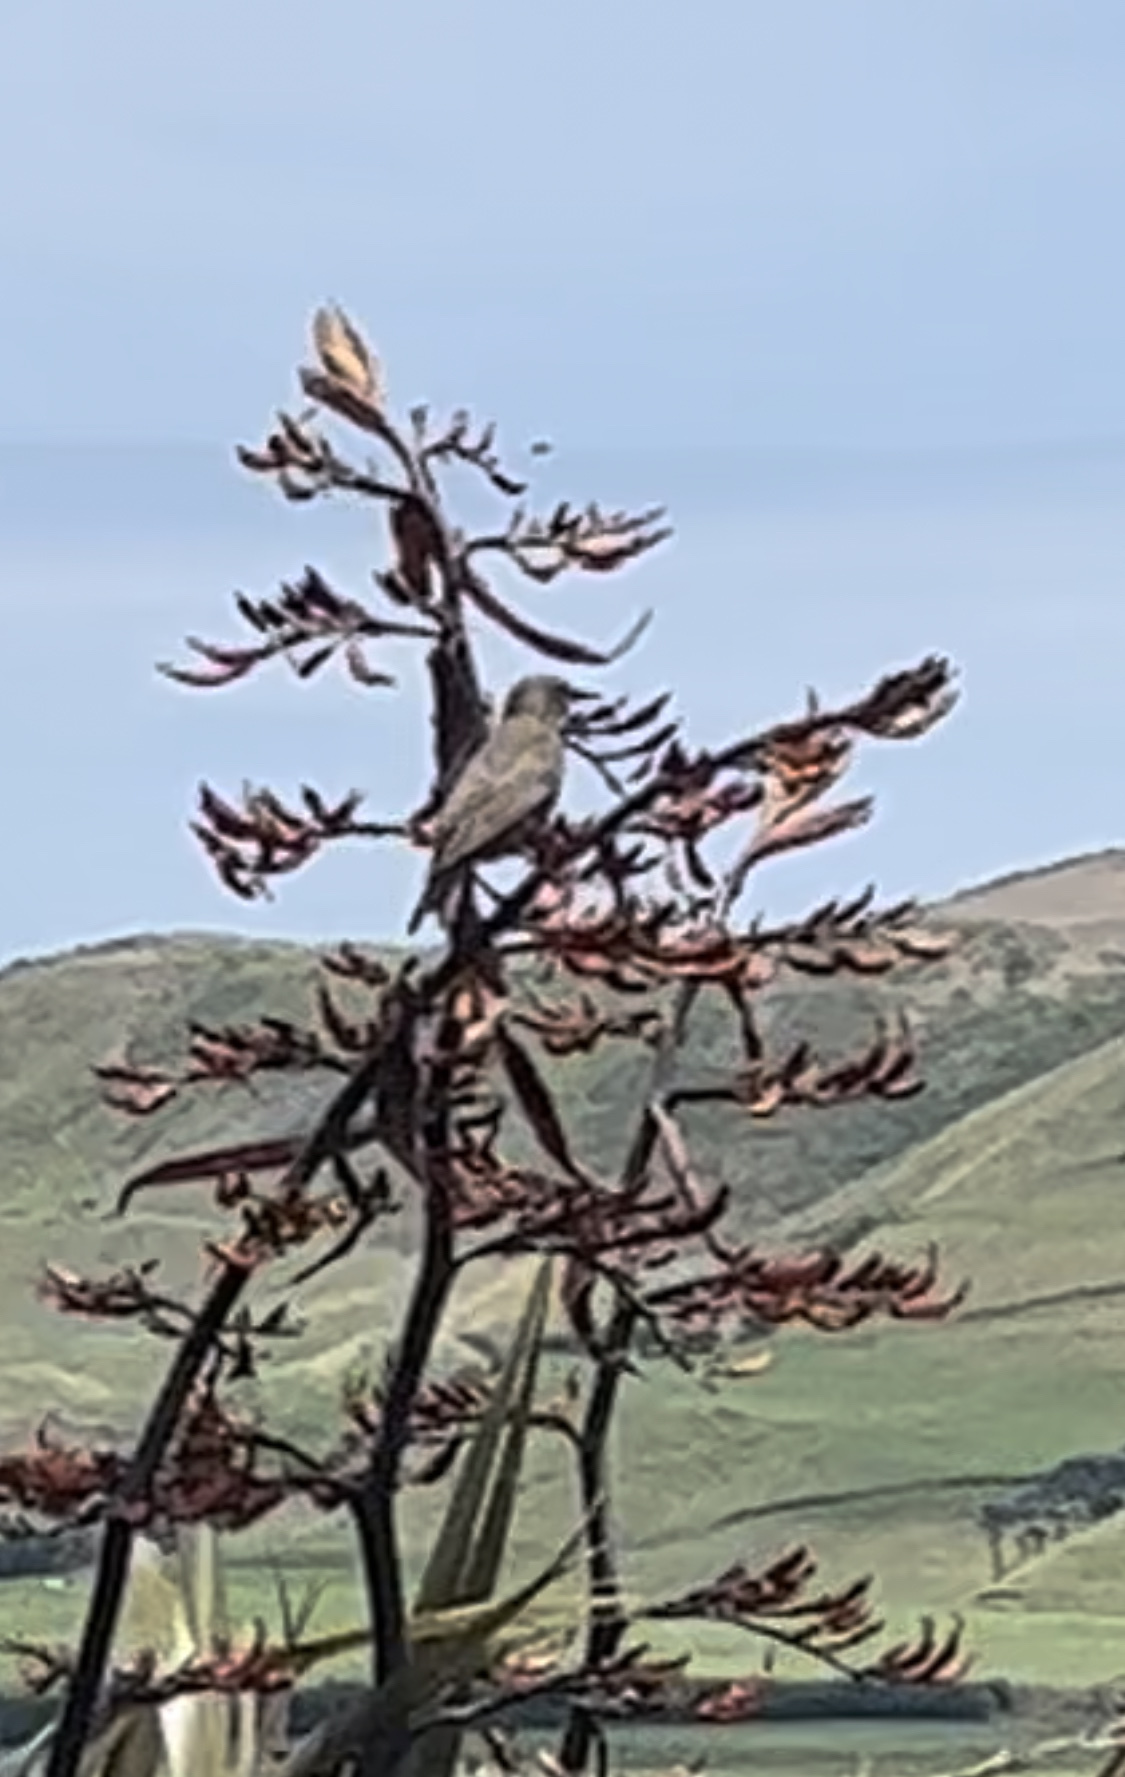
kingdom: Animalia
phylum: Chordata
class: Aves
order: Passeriformes
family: Sturnidae
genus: Sturnus
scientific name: Sturnus vulgaris
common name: Common starling
